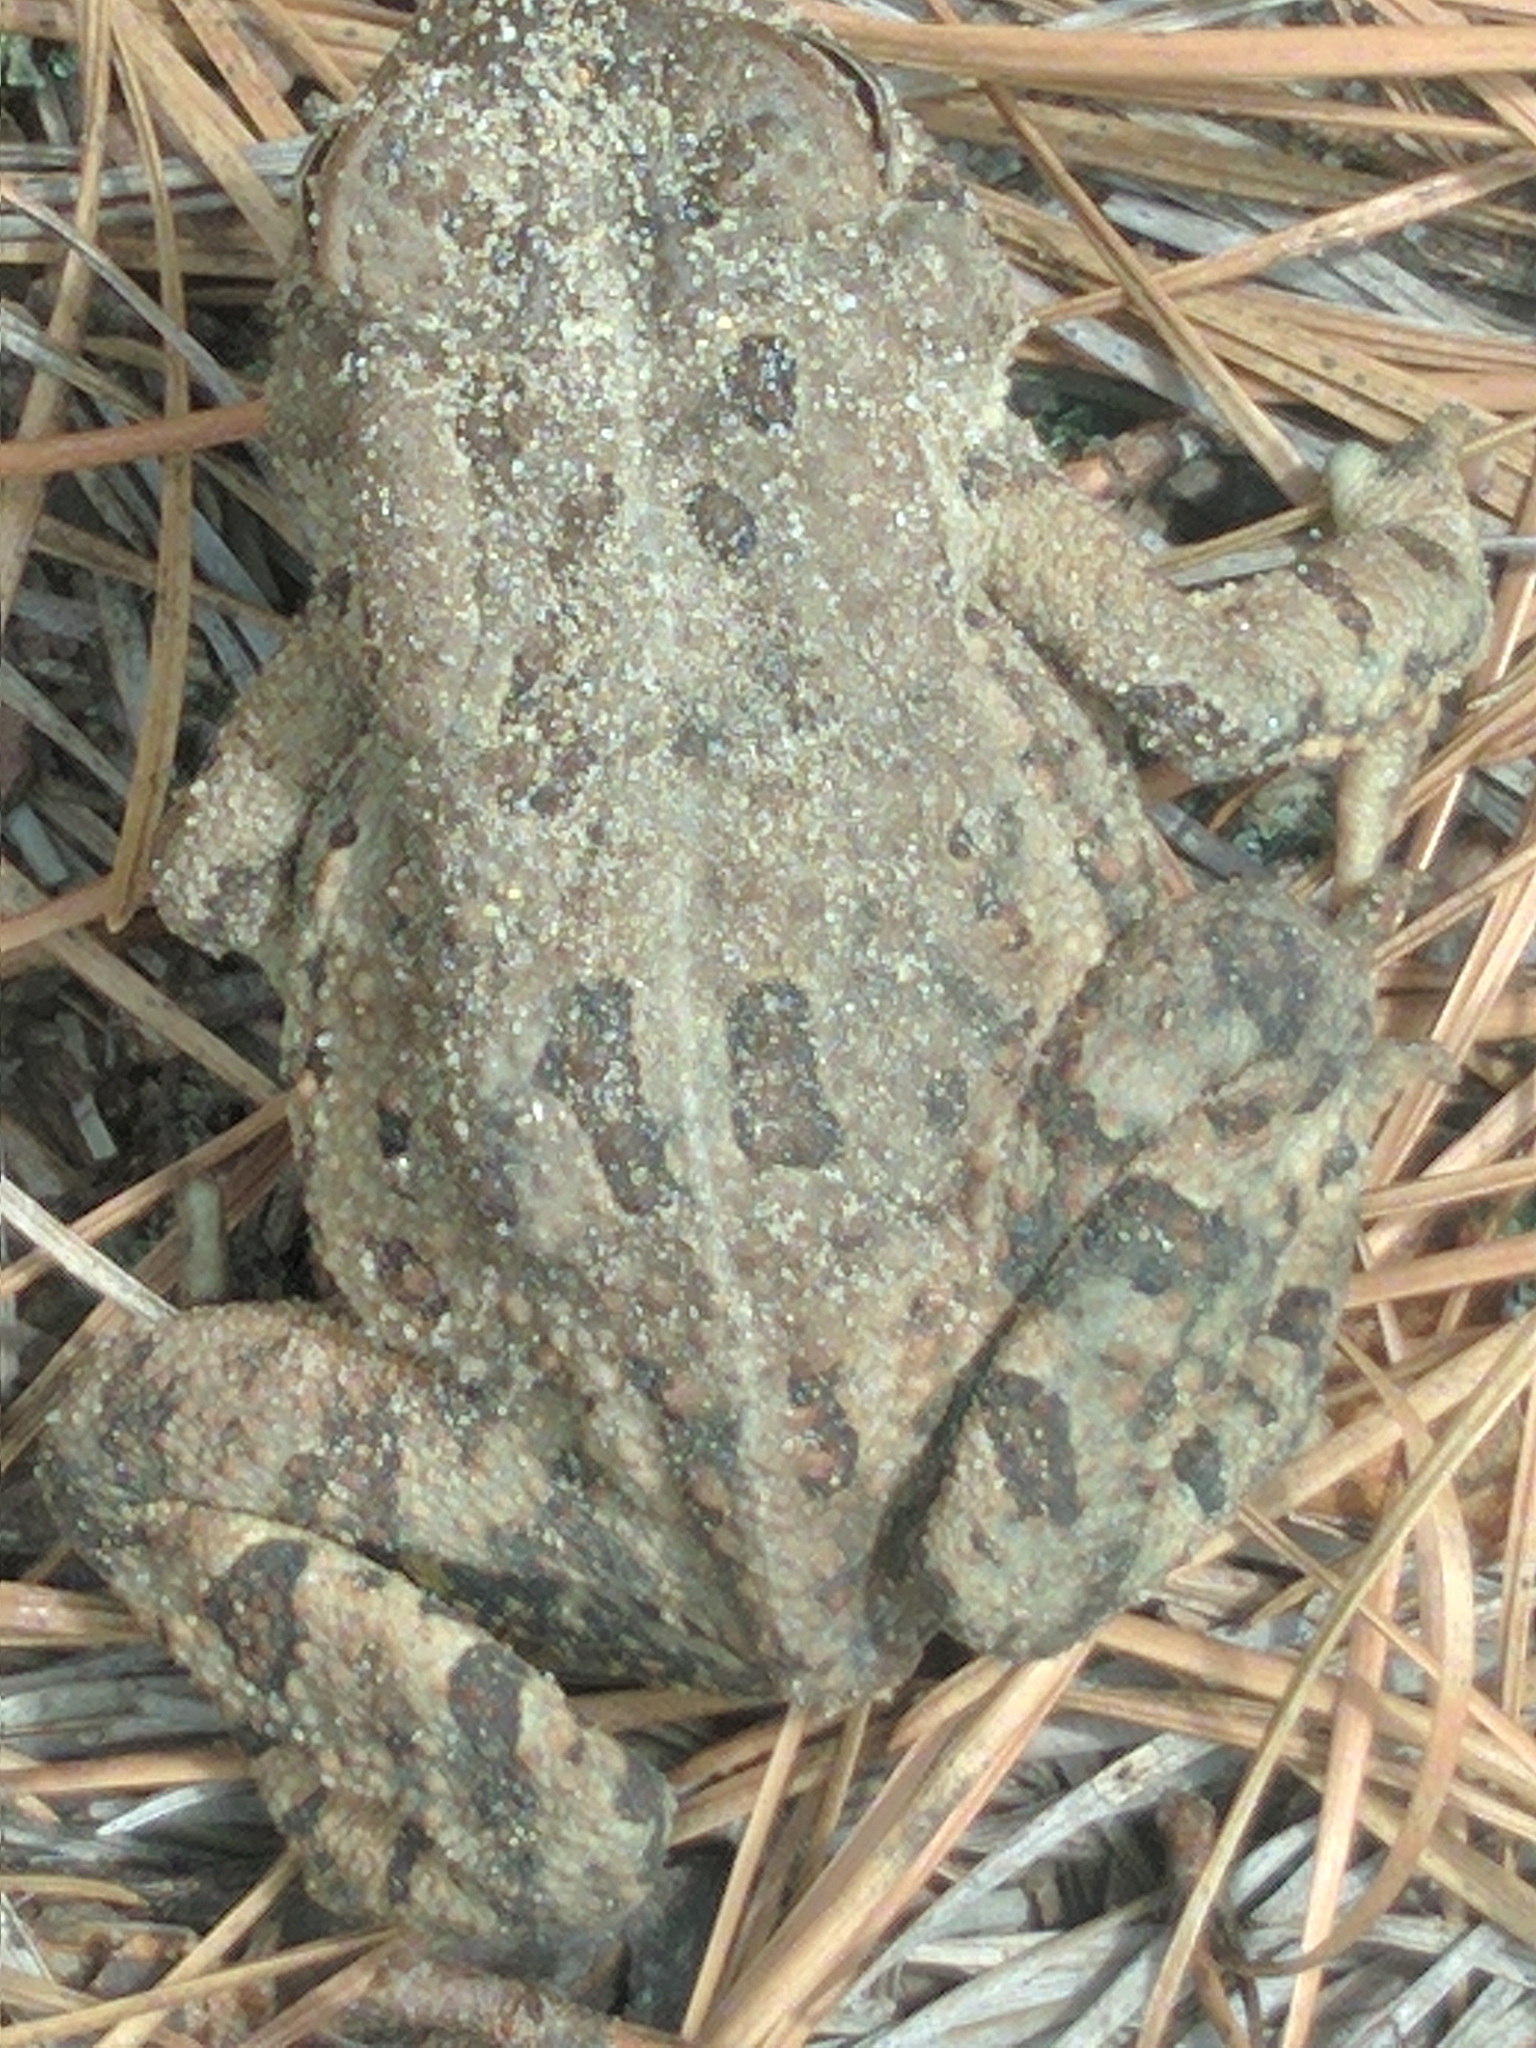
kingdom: Animalia
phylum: Chordata
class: Amphibia
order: Anura
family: Bufonidae
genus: Anaxyrus
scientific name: Anaxyrus fowleri
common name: Fowler's toad
